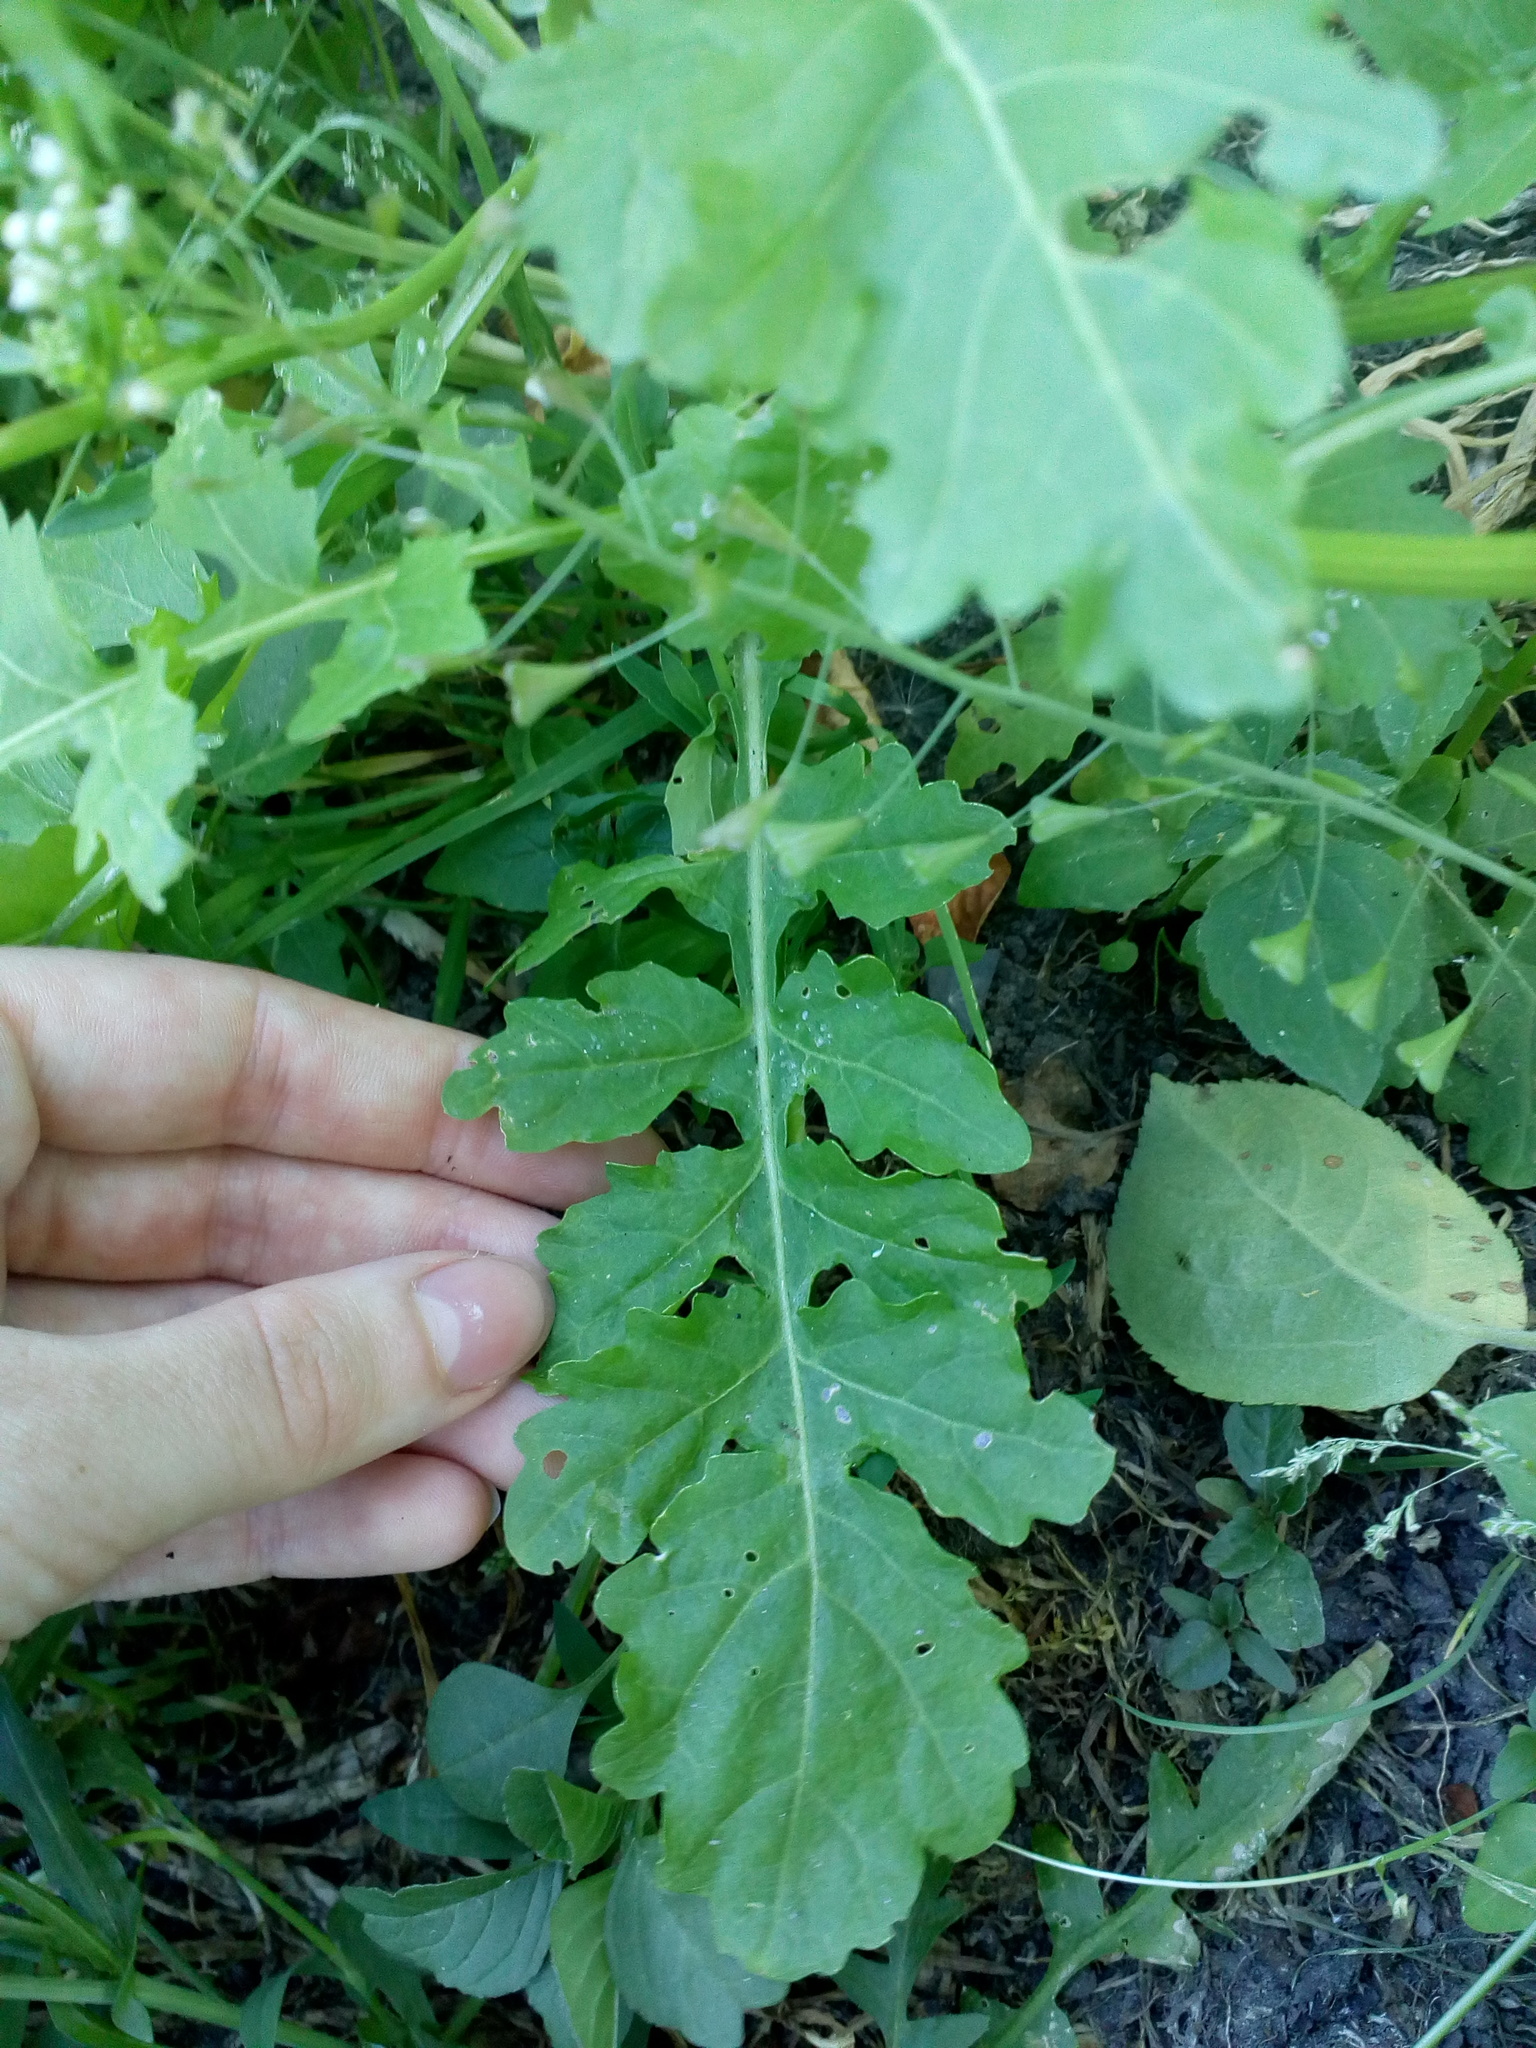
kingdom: Plantae
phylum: Tracheophyta
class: Magnoliopsida
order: Brassicales
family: Brassicaceae
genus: Rorippa
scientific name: Rorippa palustris
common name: Marsh yellow-cress
